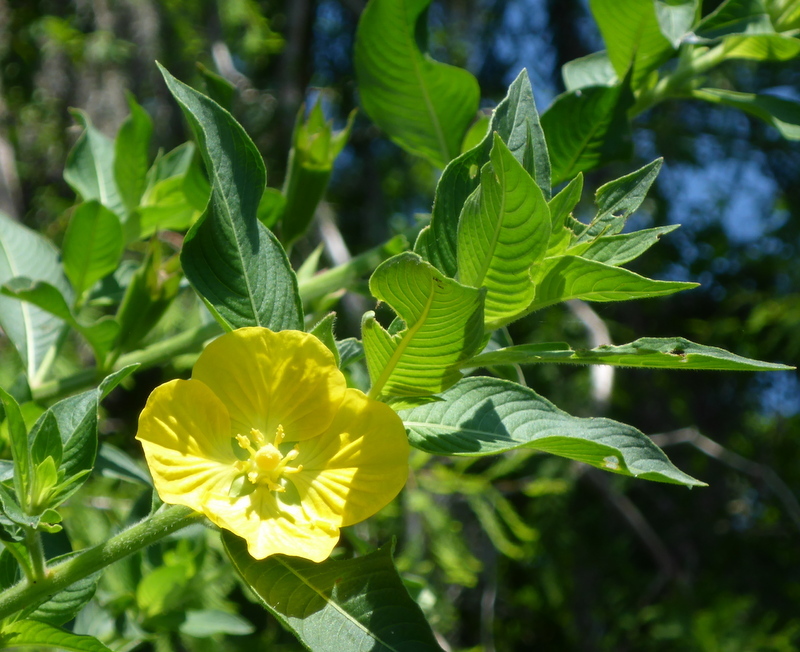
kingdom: Plantae
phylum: Tracheophyta
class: Magnoliopsida
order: Myrtales
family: Onagraceae
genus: Ludwigia
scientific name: Ludwigia peruviana
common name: Peruvian primrose-willow
